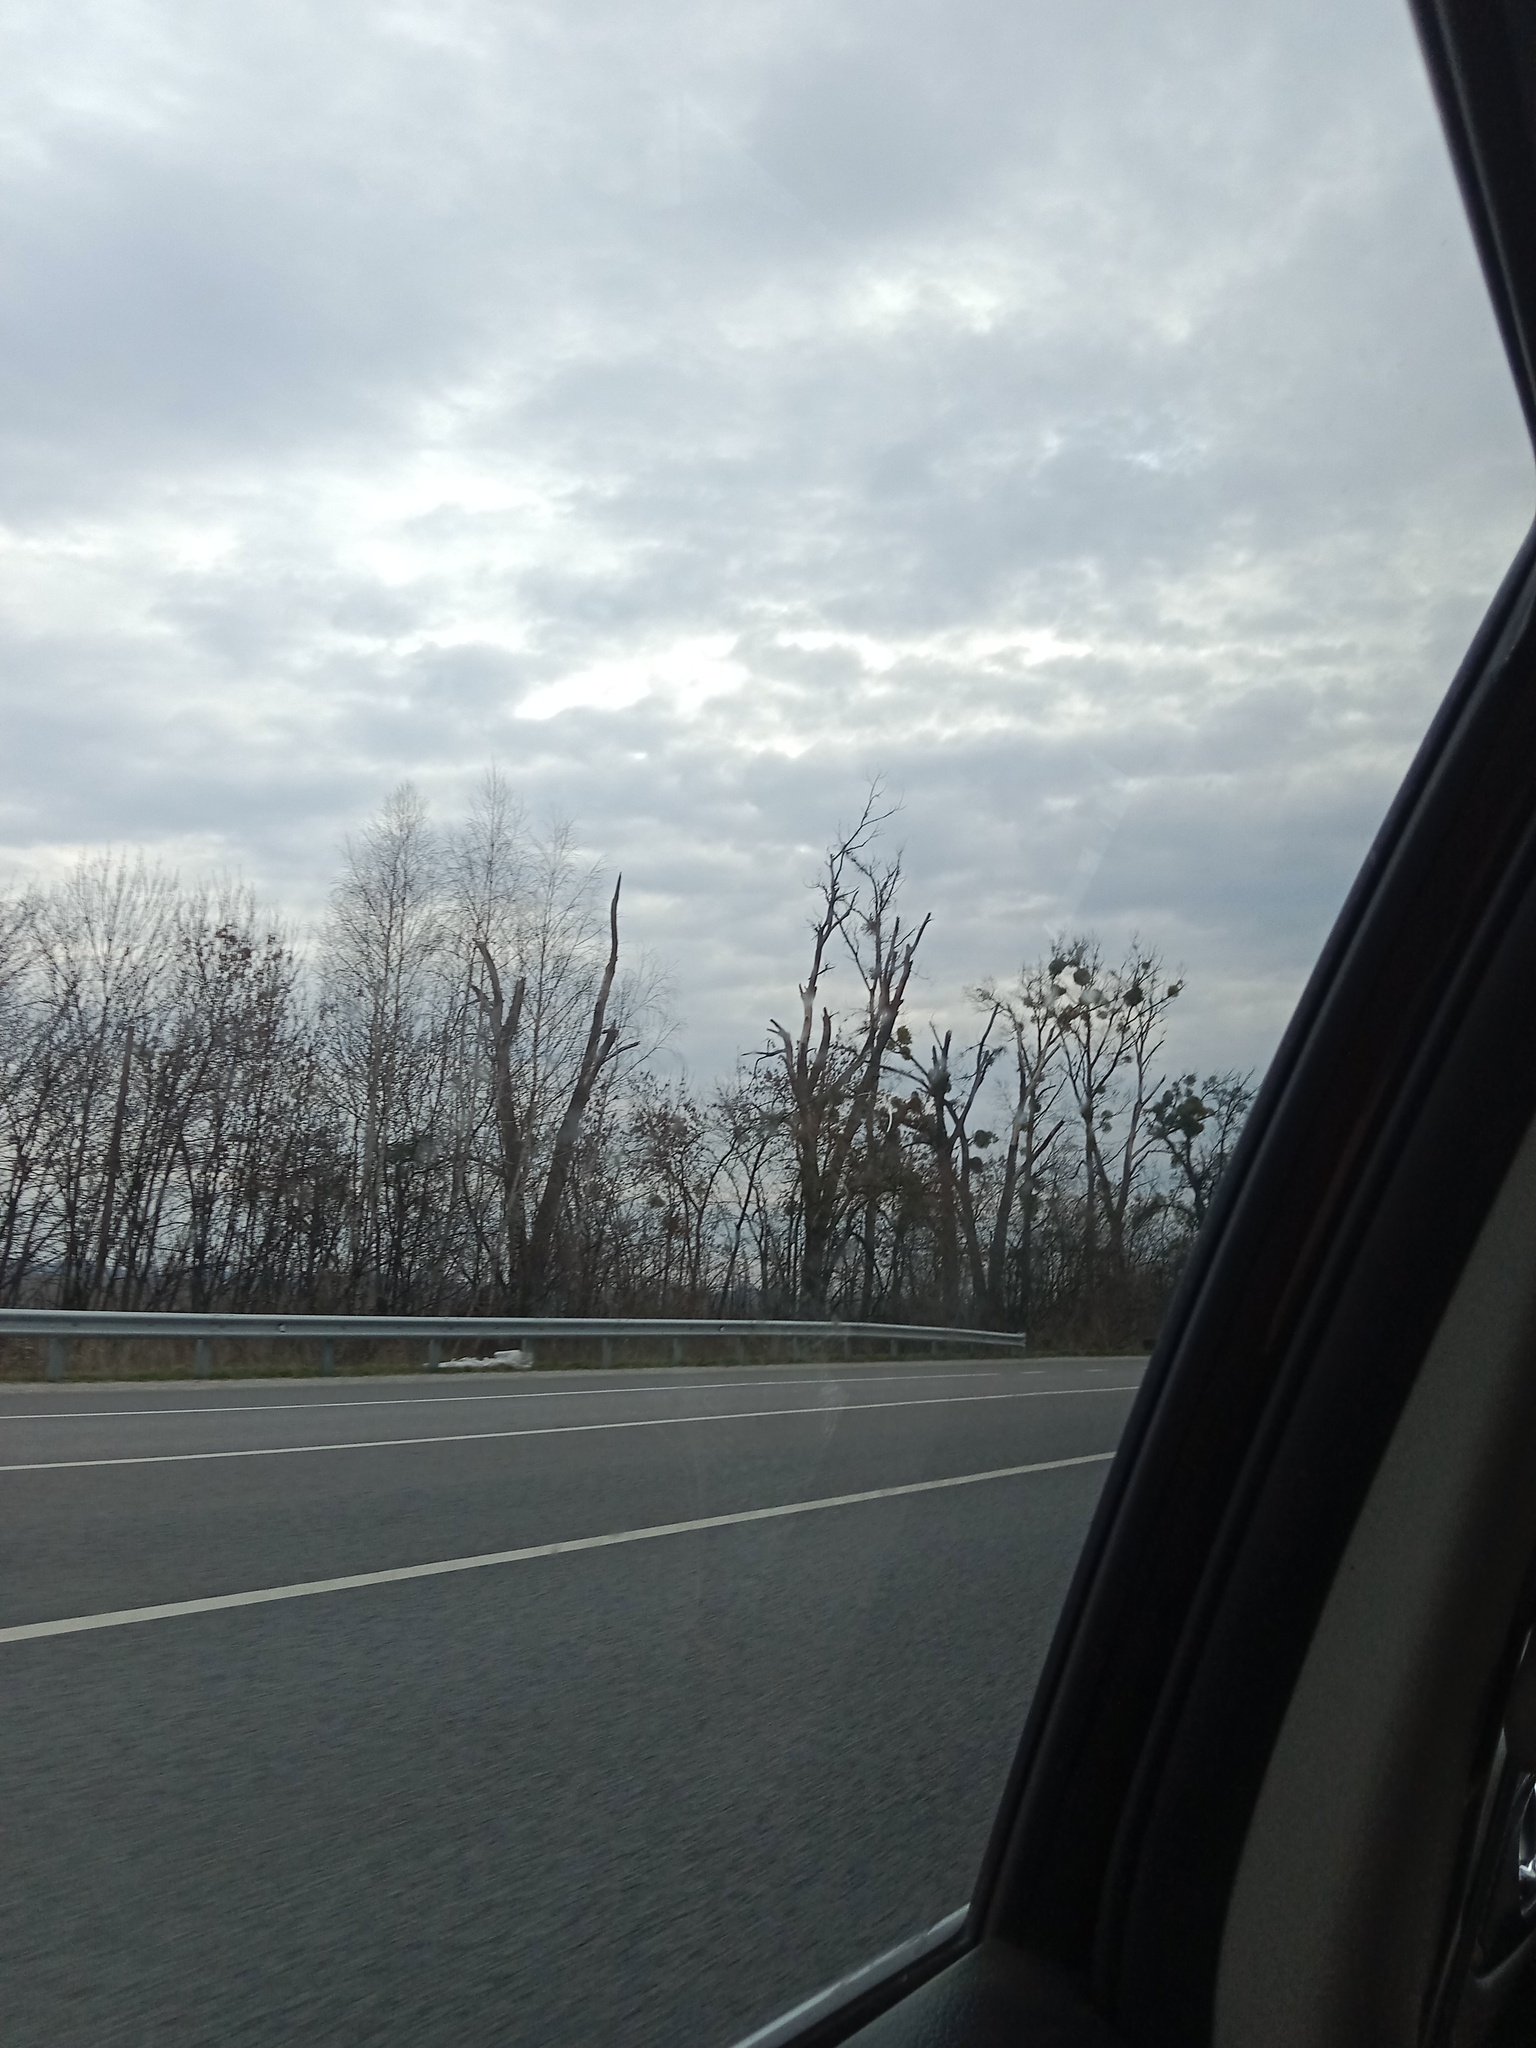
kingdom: Plantae
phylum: Tracheophyta
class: Magnoliopsida
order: Santalales
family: Viscaceae
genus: Viscum
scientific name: Viscum album
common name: Mistletoe
